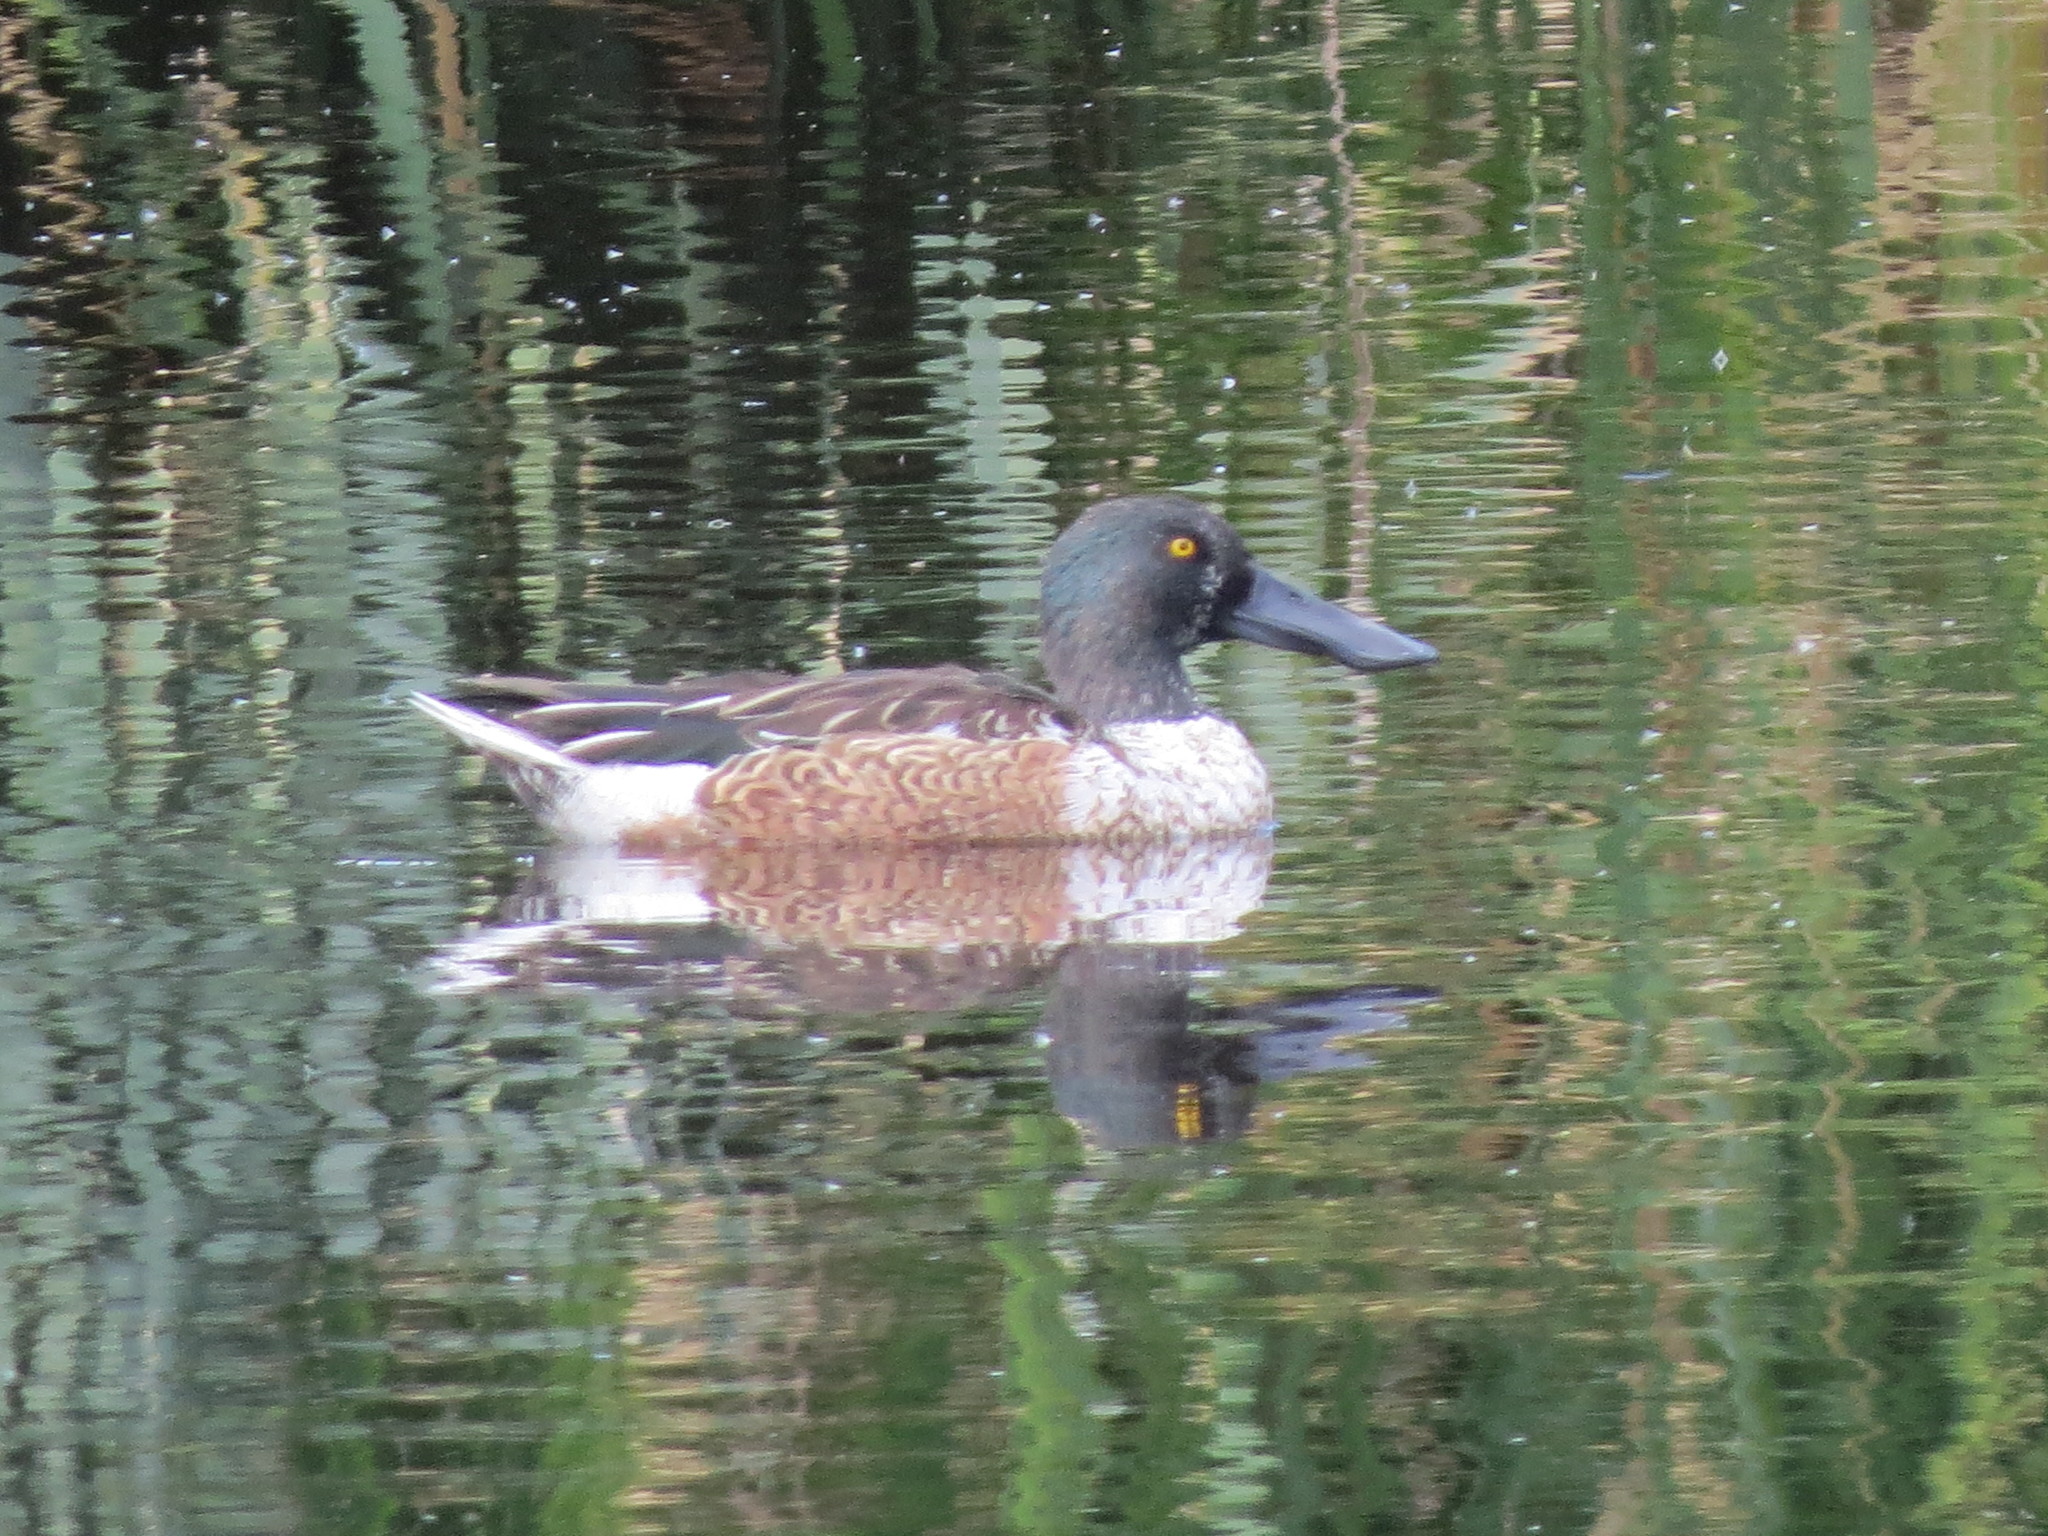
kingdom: Animalia
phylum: Chordata
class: Aves
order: Anseriformes
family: Anatidae
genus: Spatula
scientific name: Spatula clypeata
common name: Northern shoveler
